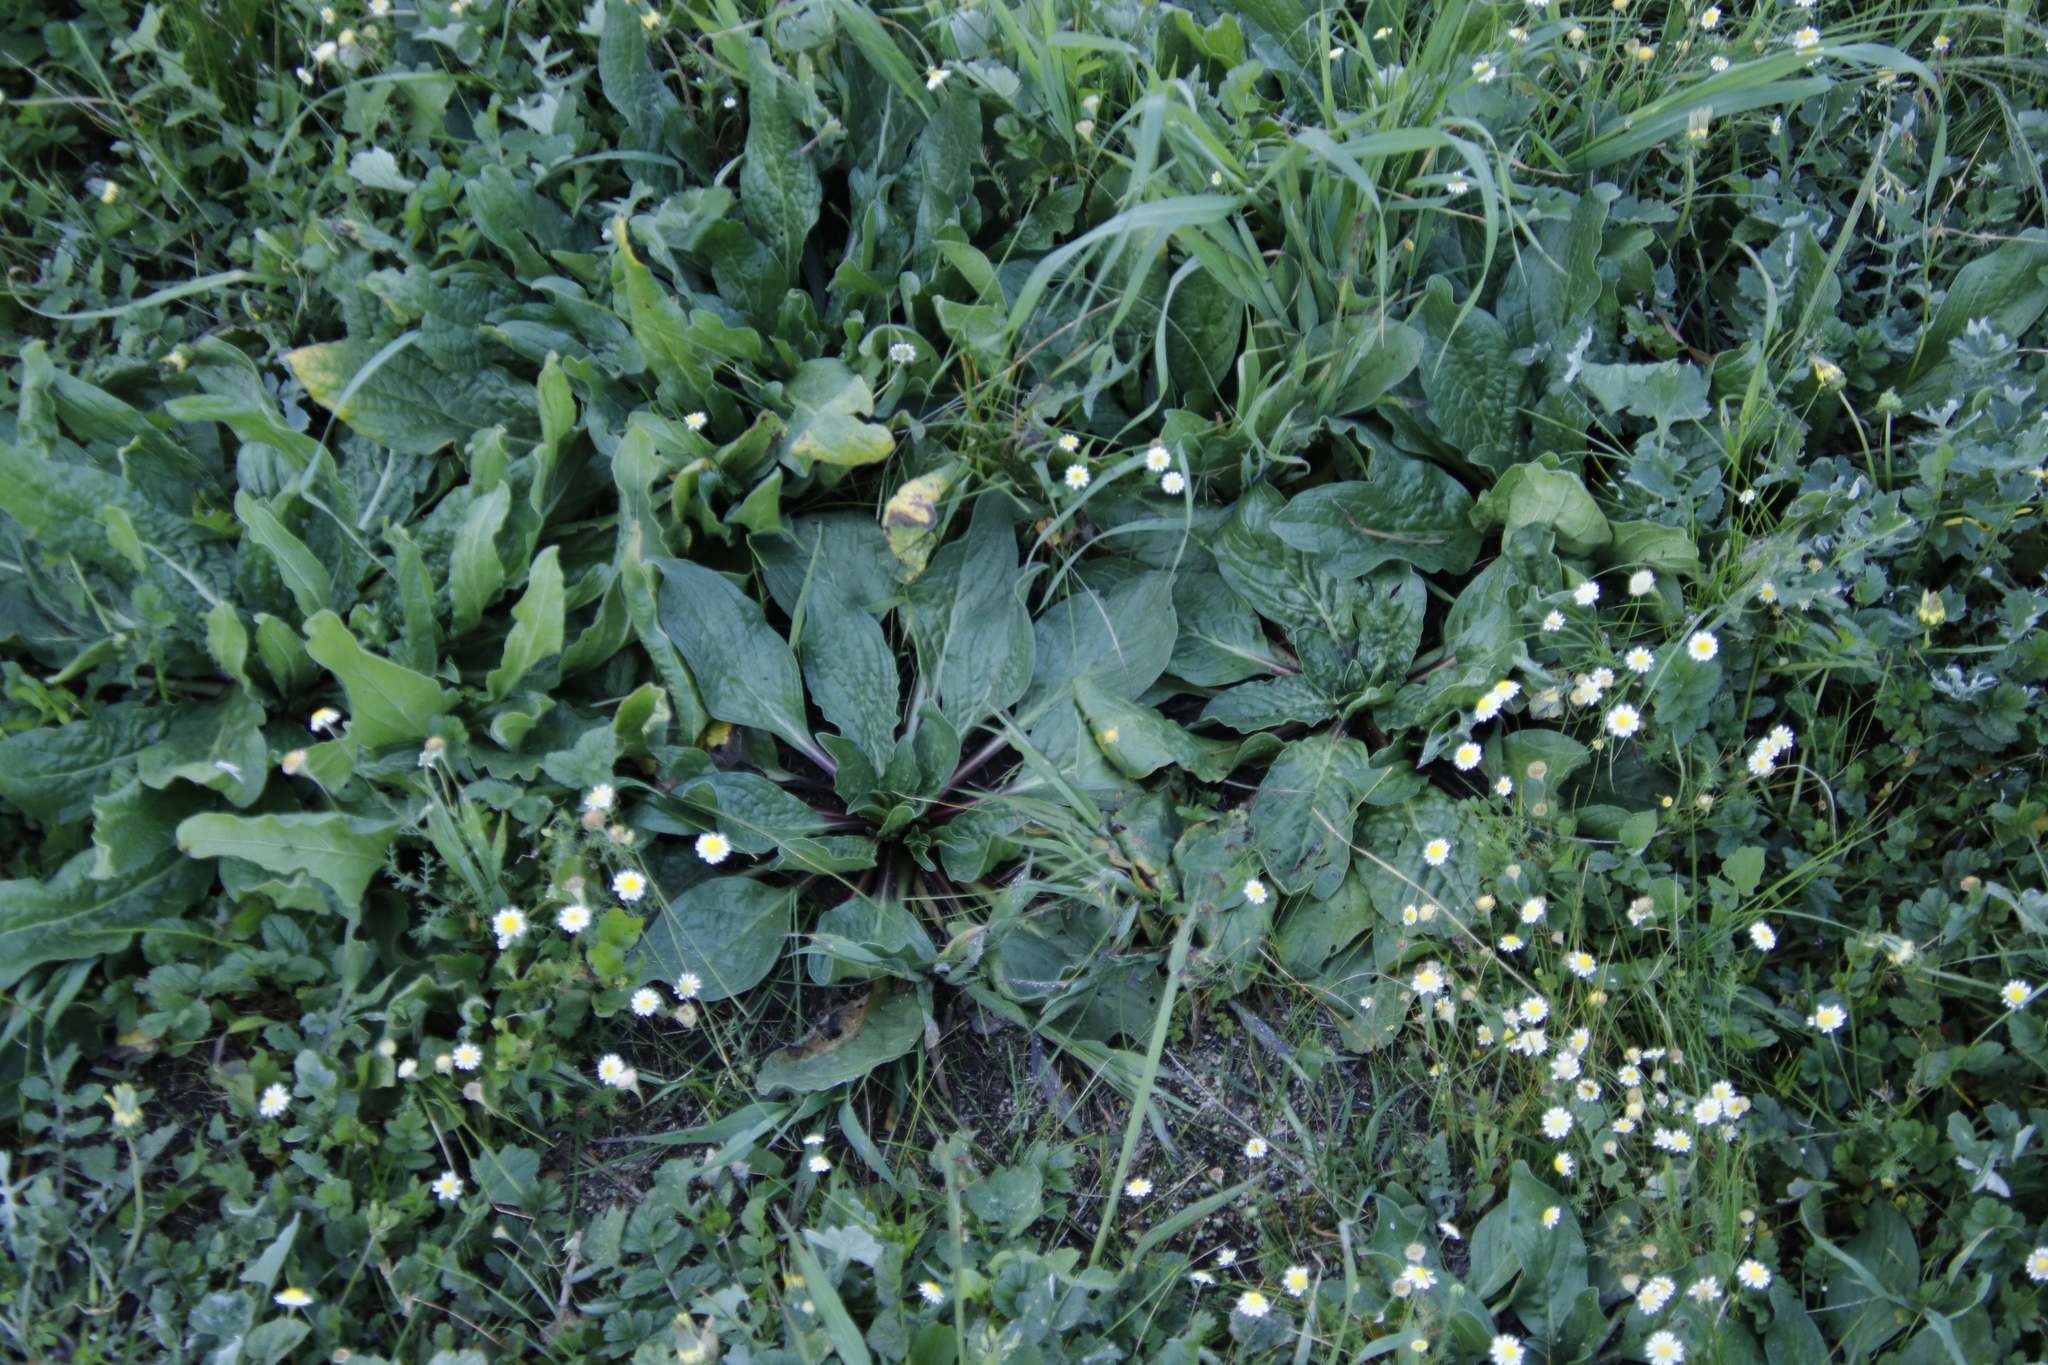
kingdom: Plantae
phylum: Tracheophyta
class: Magnoliopsida
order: Boraginales
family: Boraginaceae
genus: Echium
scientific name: Echium plantagineum
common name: Purple viper's-bugloss
